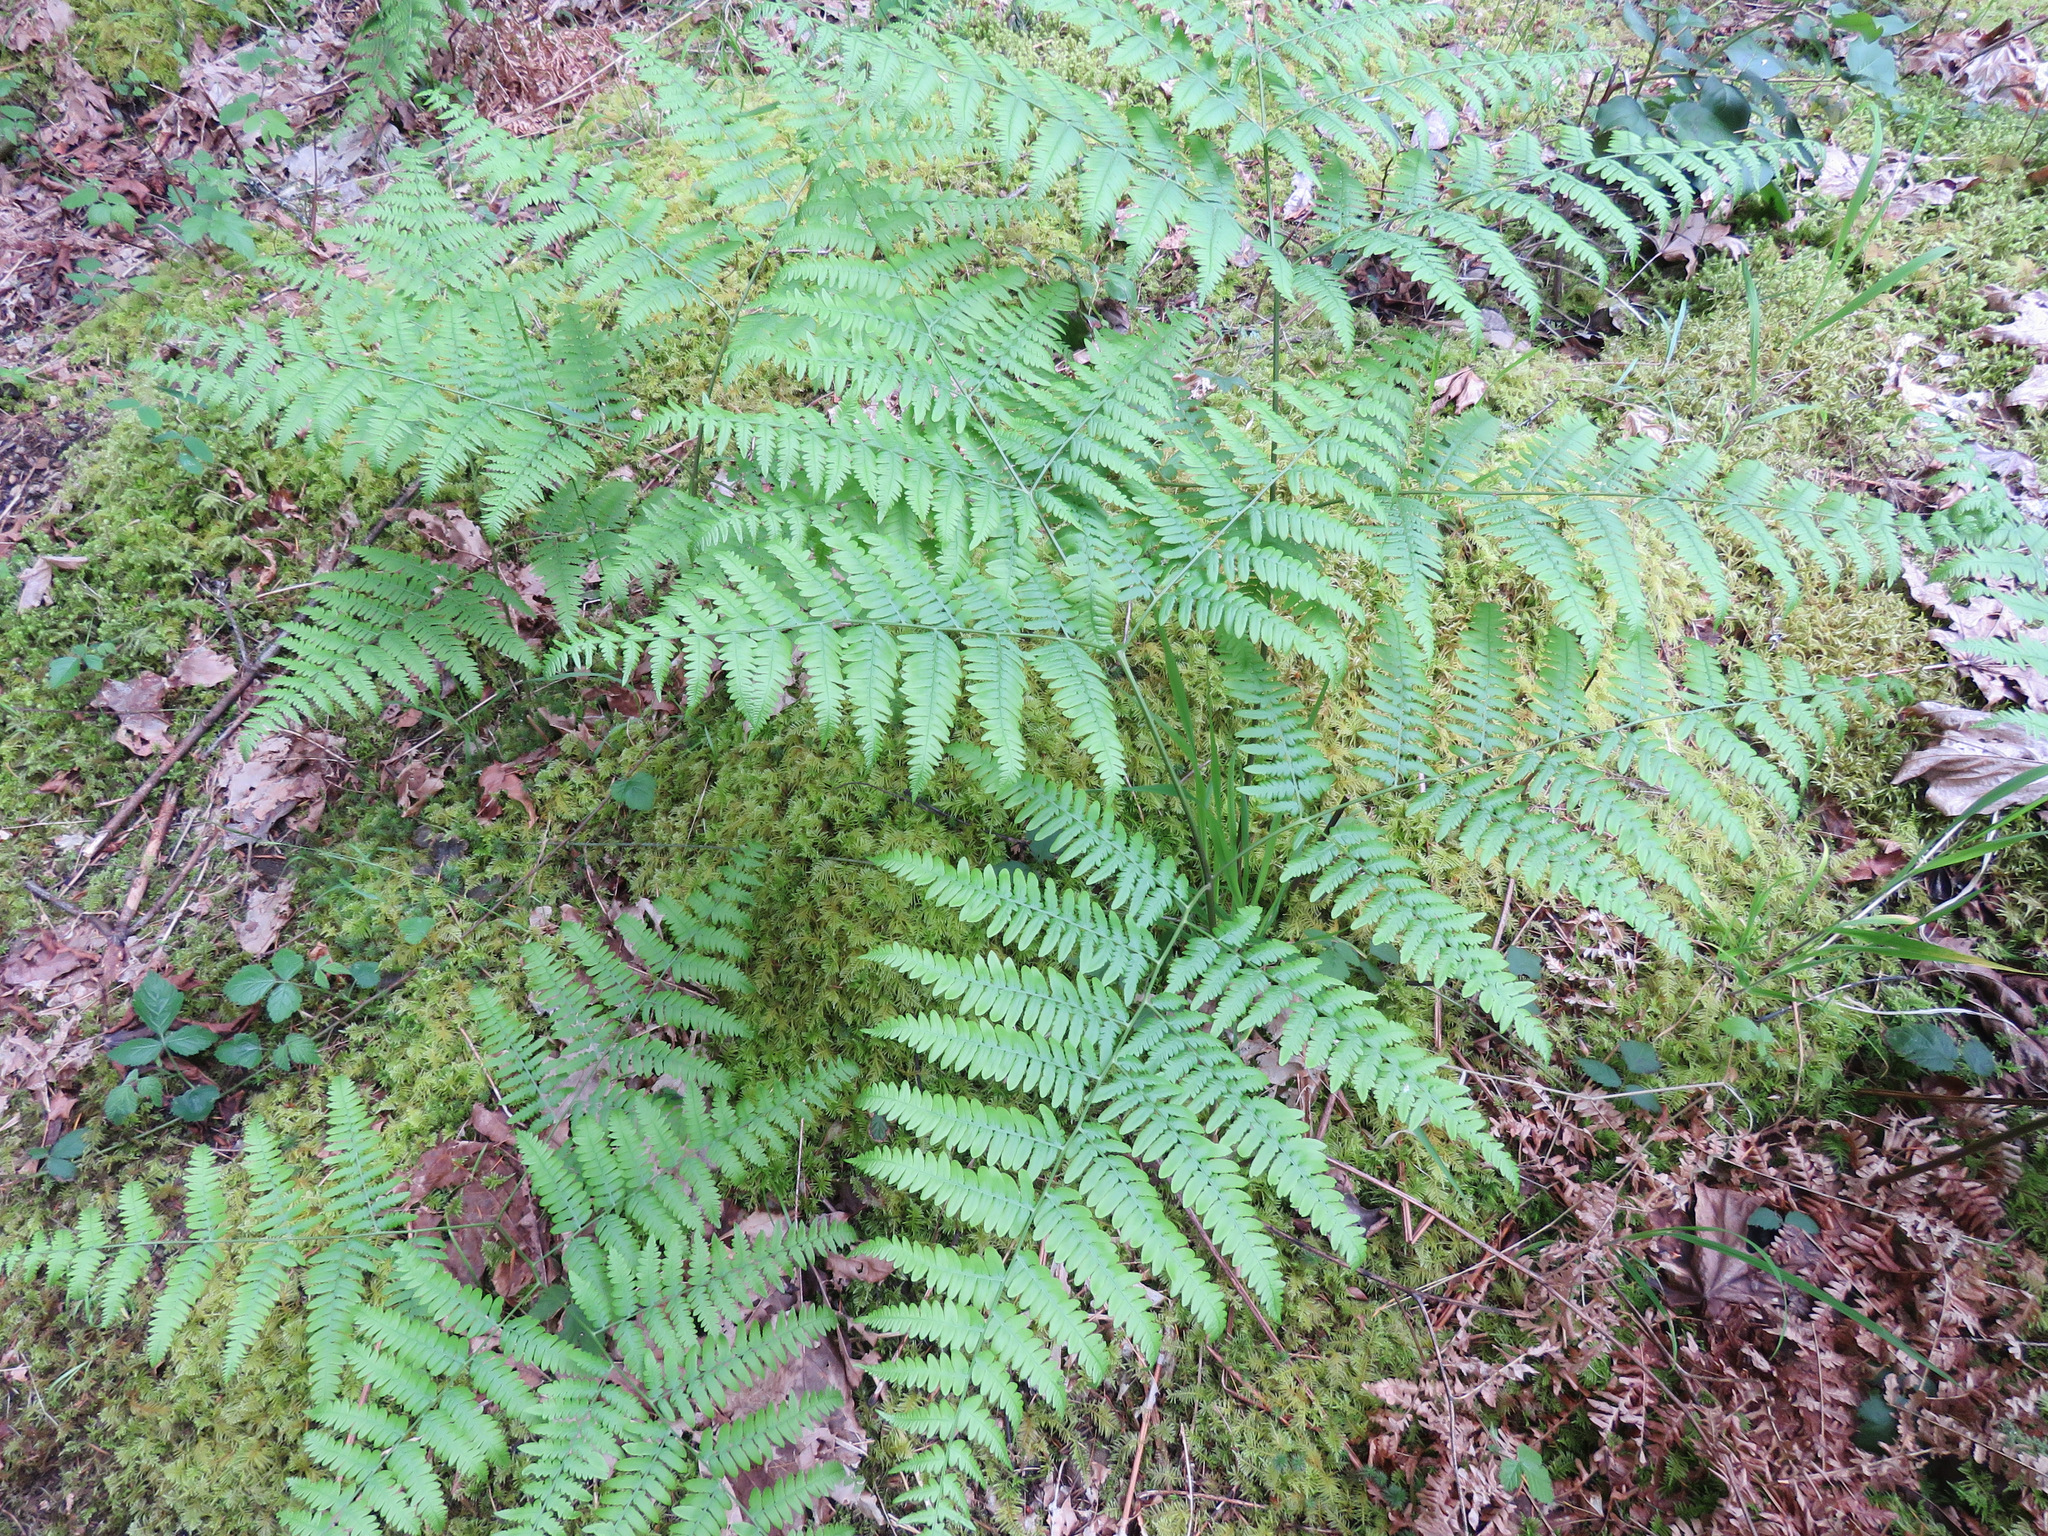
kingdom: Plantae
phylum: Tracheophyta
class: Polypodiopsida
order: Polypodiales
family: Dennstaedtiaceae
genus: Pteridium
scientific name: Pteridium aquilinum
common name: Bracken
